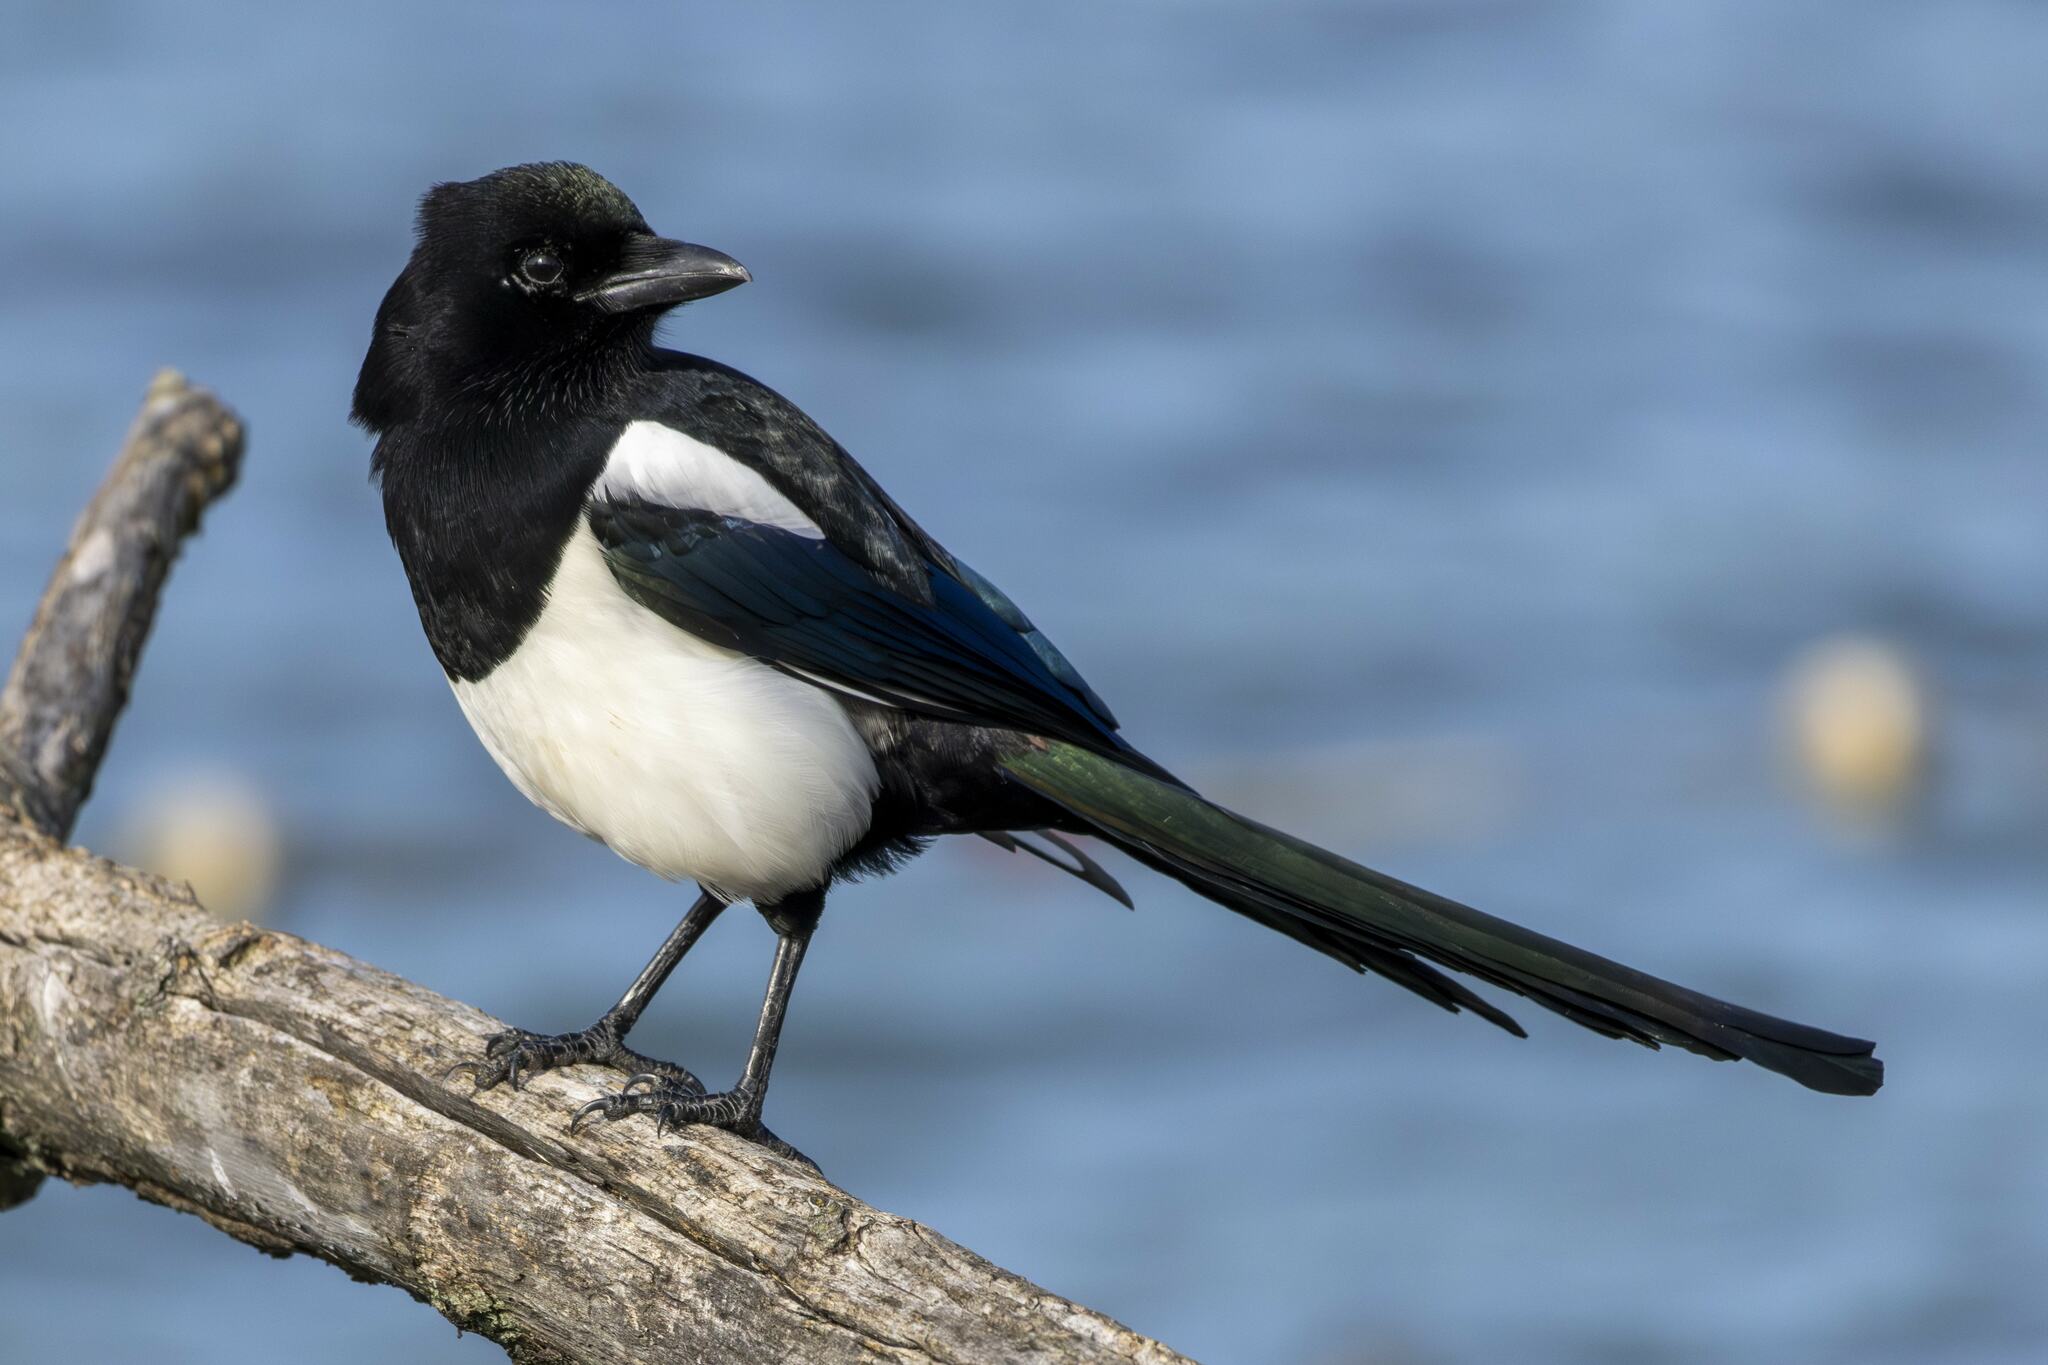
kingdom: Animalia
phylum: Chordata
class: Aves
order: Passeriformes
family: Corvidae
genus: Pica
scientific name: Pica pica
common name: Eurasian magpie
